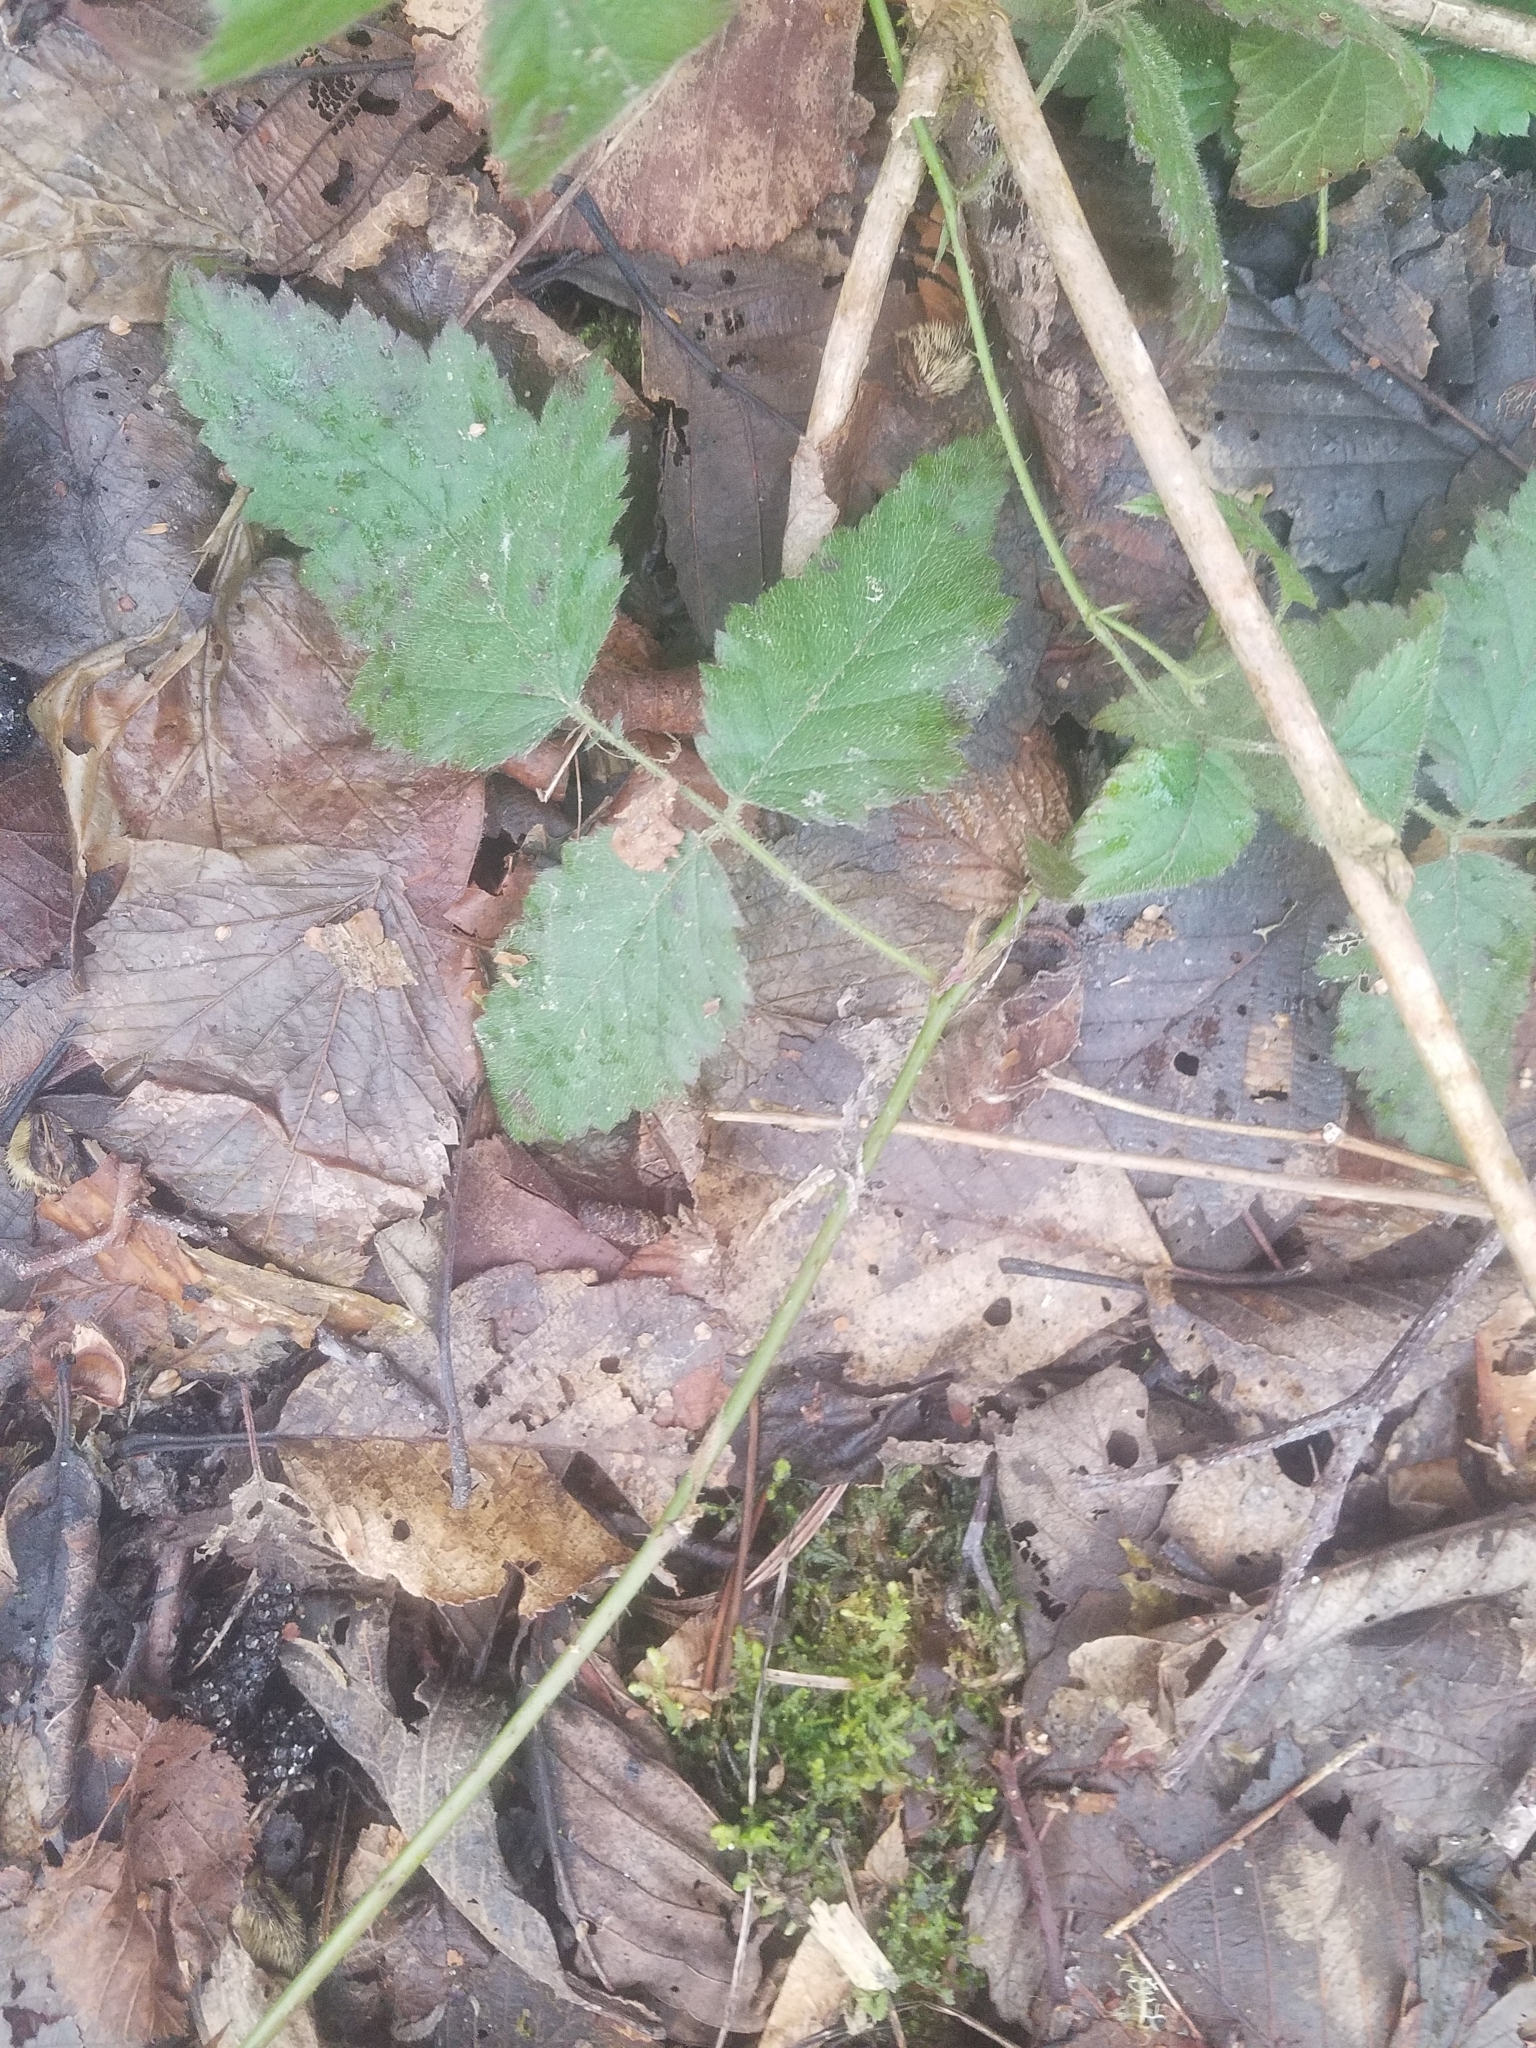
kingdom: Plantae
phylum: Tracheophyta
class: Magnoliopsida
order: Rosales
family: Rosaceae
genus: Rubus
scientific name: Rubus ursinus
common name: Pacific blackberry
